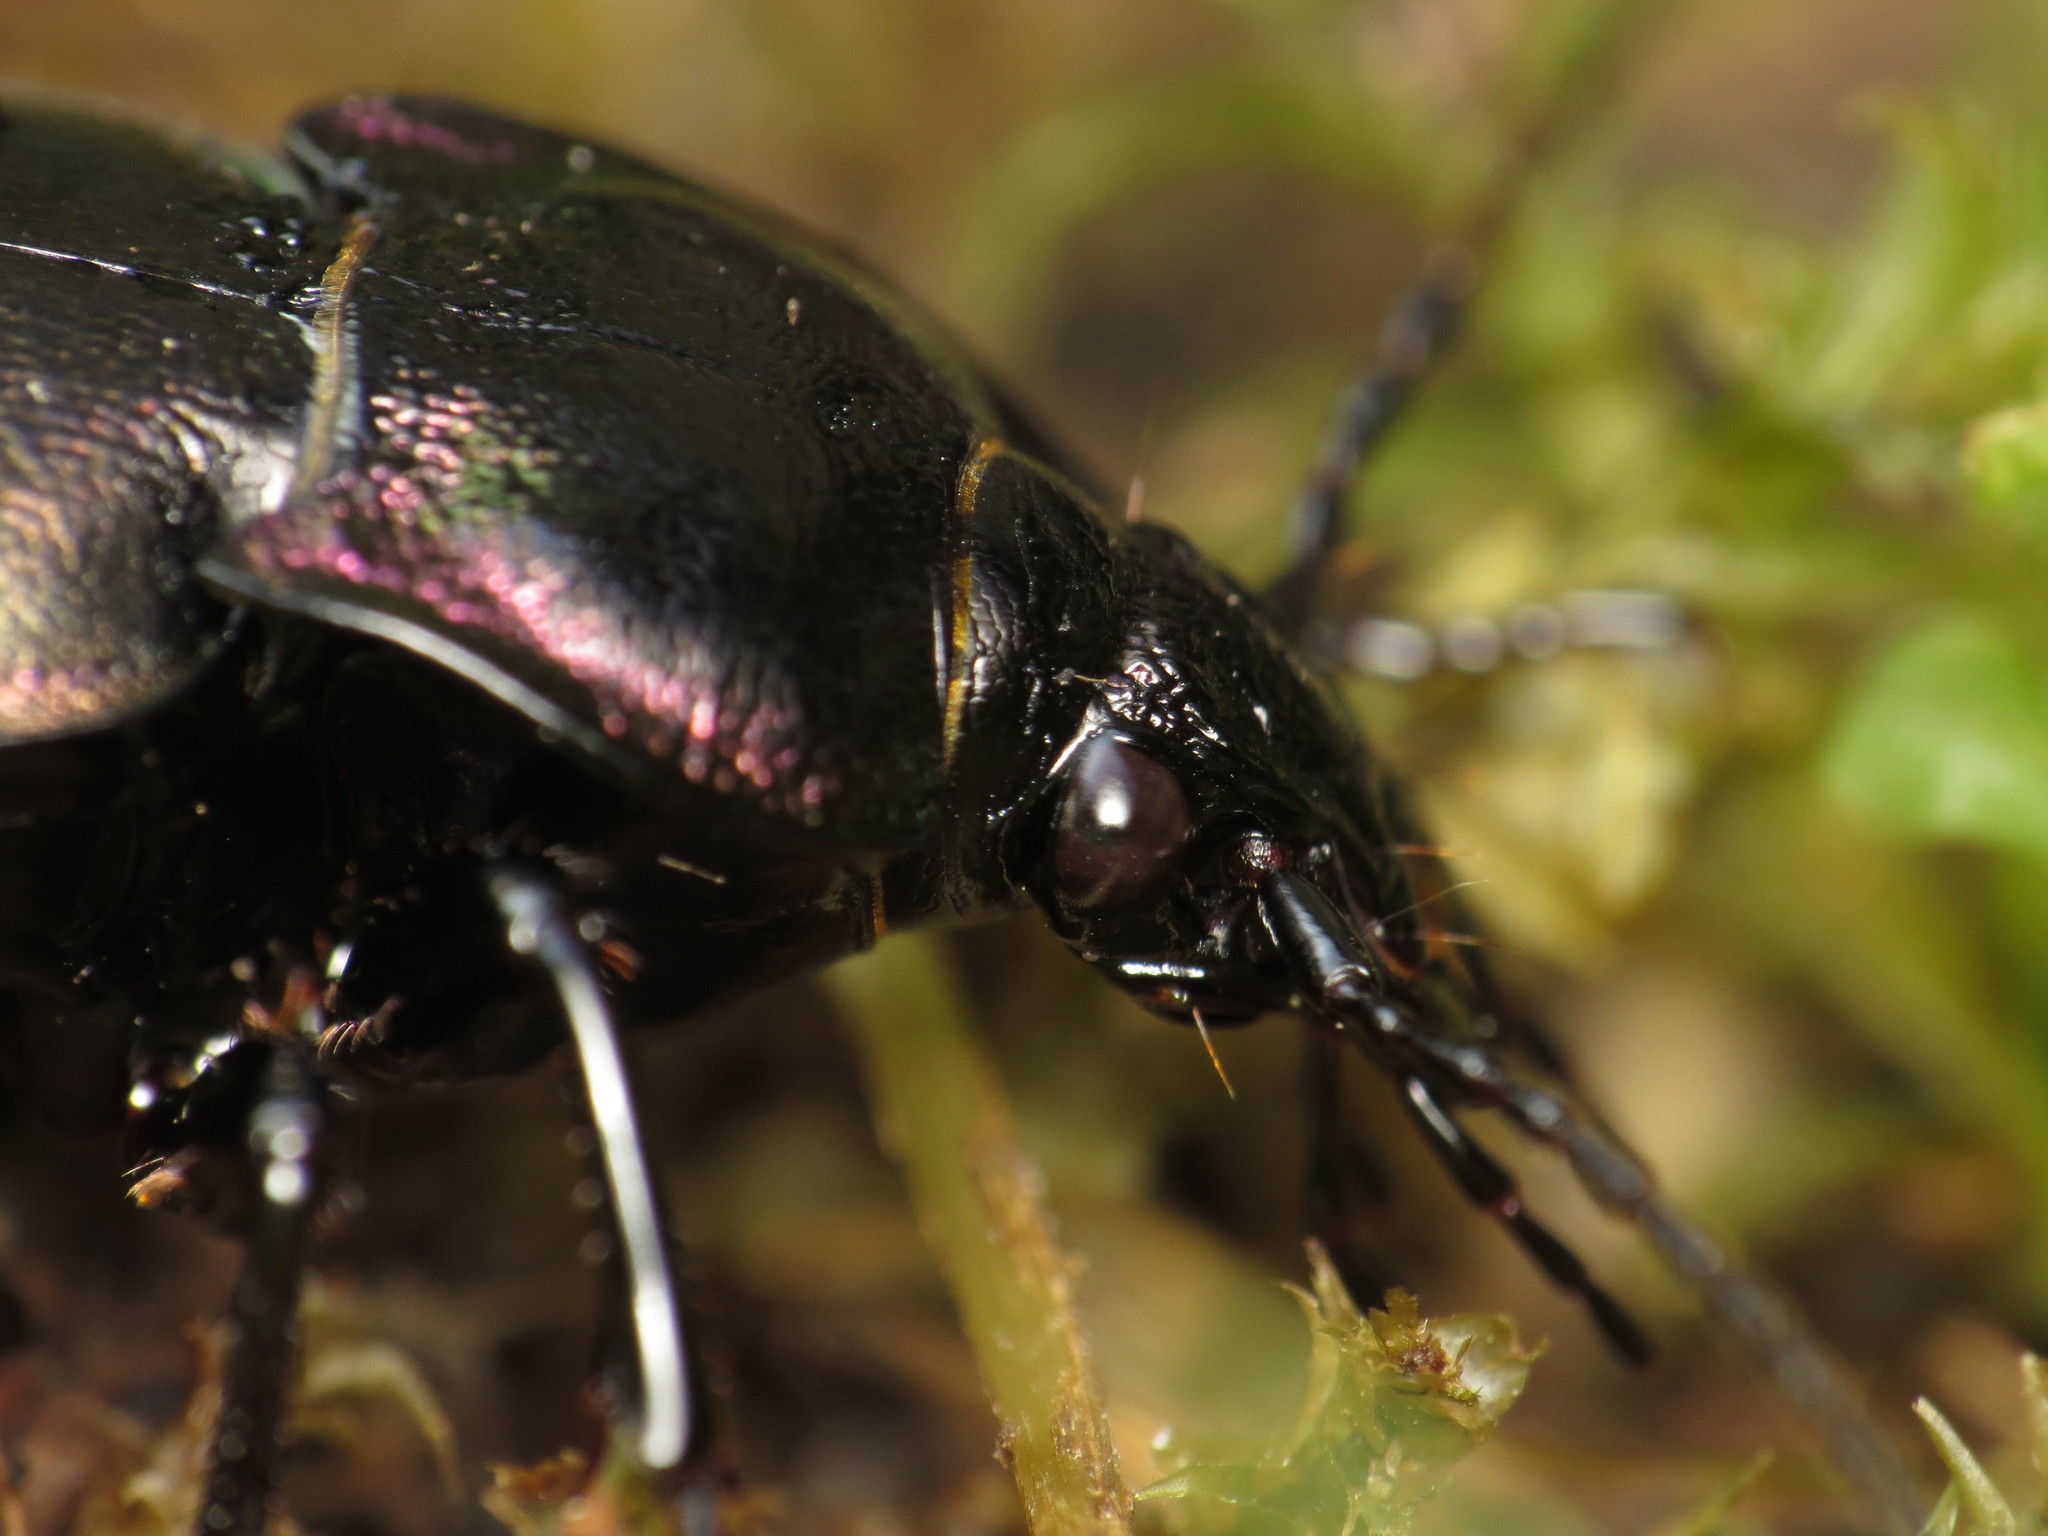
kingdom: Animalia
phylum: Arthropoda
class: Insecta
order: Coleoptera
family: Carabidae
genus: Carabus
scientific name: Carabus nemoralis
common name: European ground beetle
